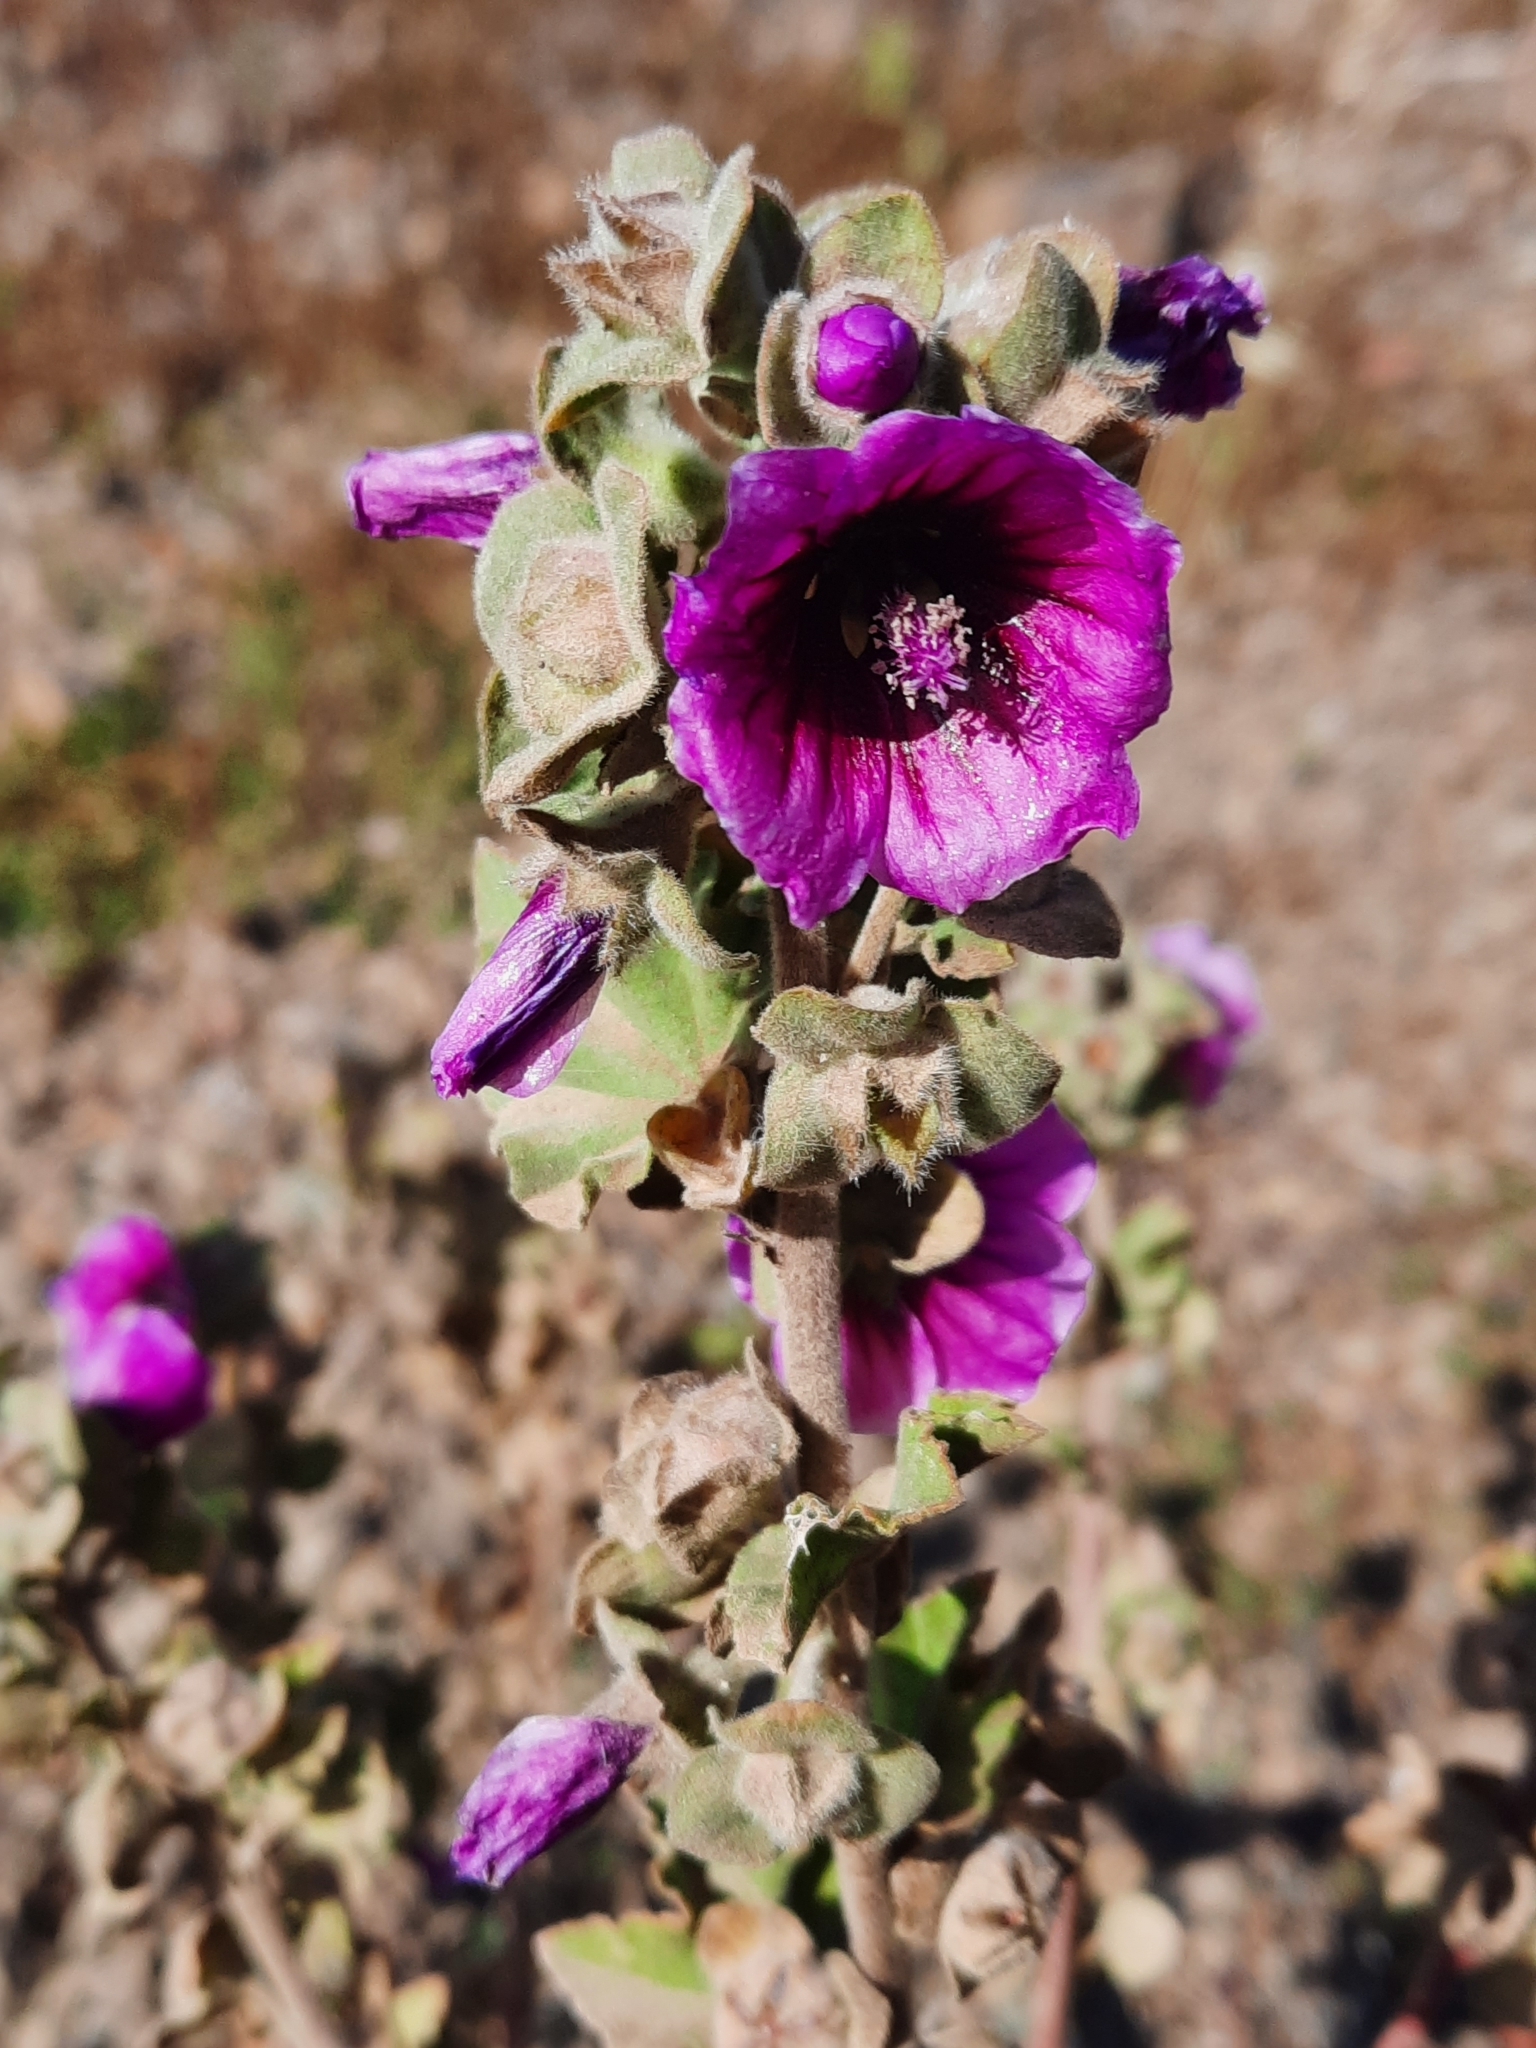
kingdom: Plantae
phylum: Tracheophyta
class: Magnoliopsida
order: Malvales
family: Malvaceae
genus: Malva
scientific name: Malva arborea
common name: Tree mallow
